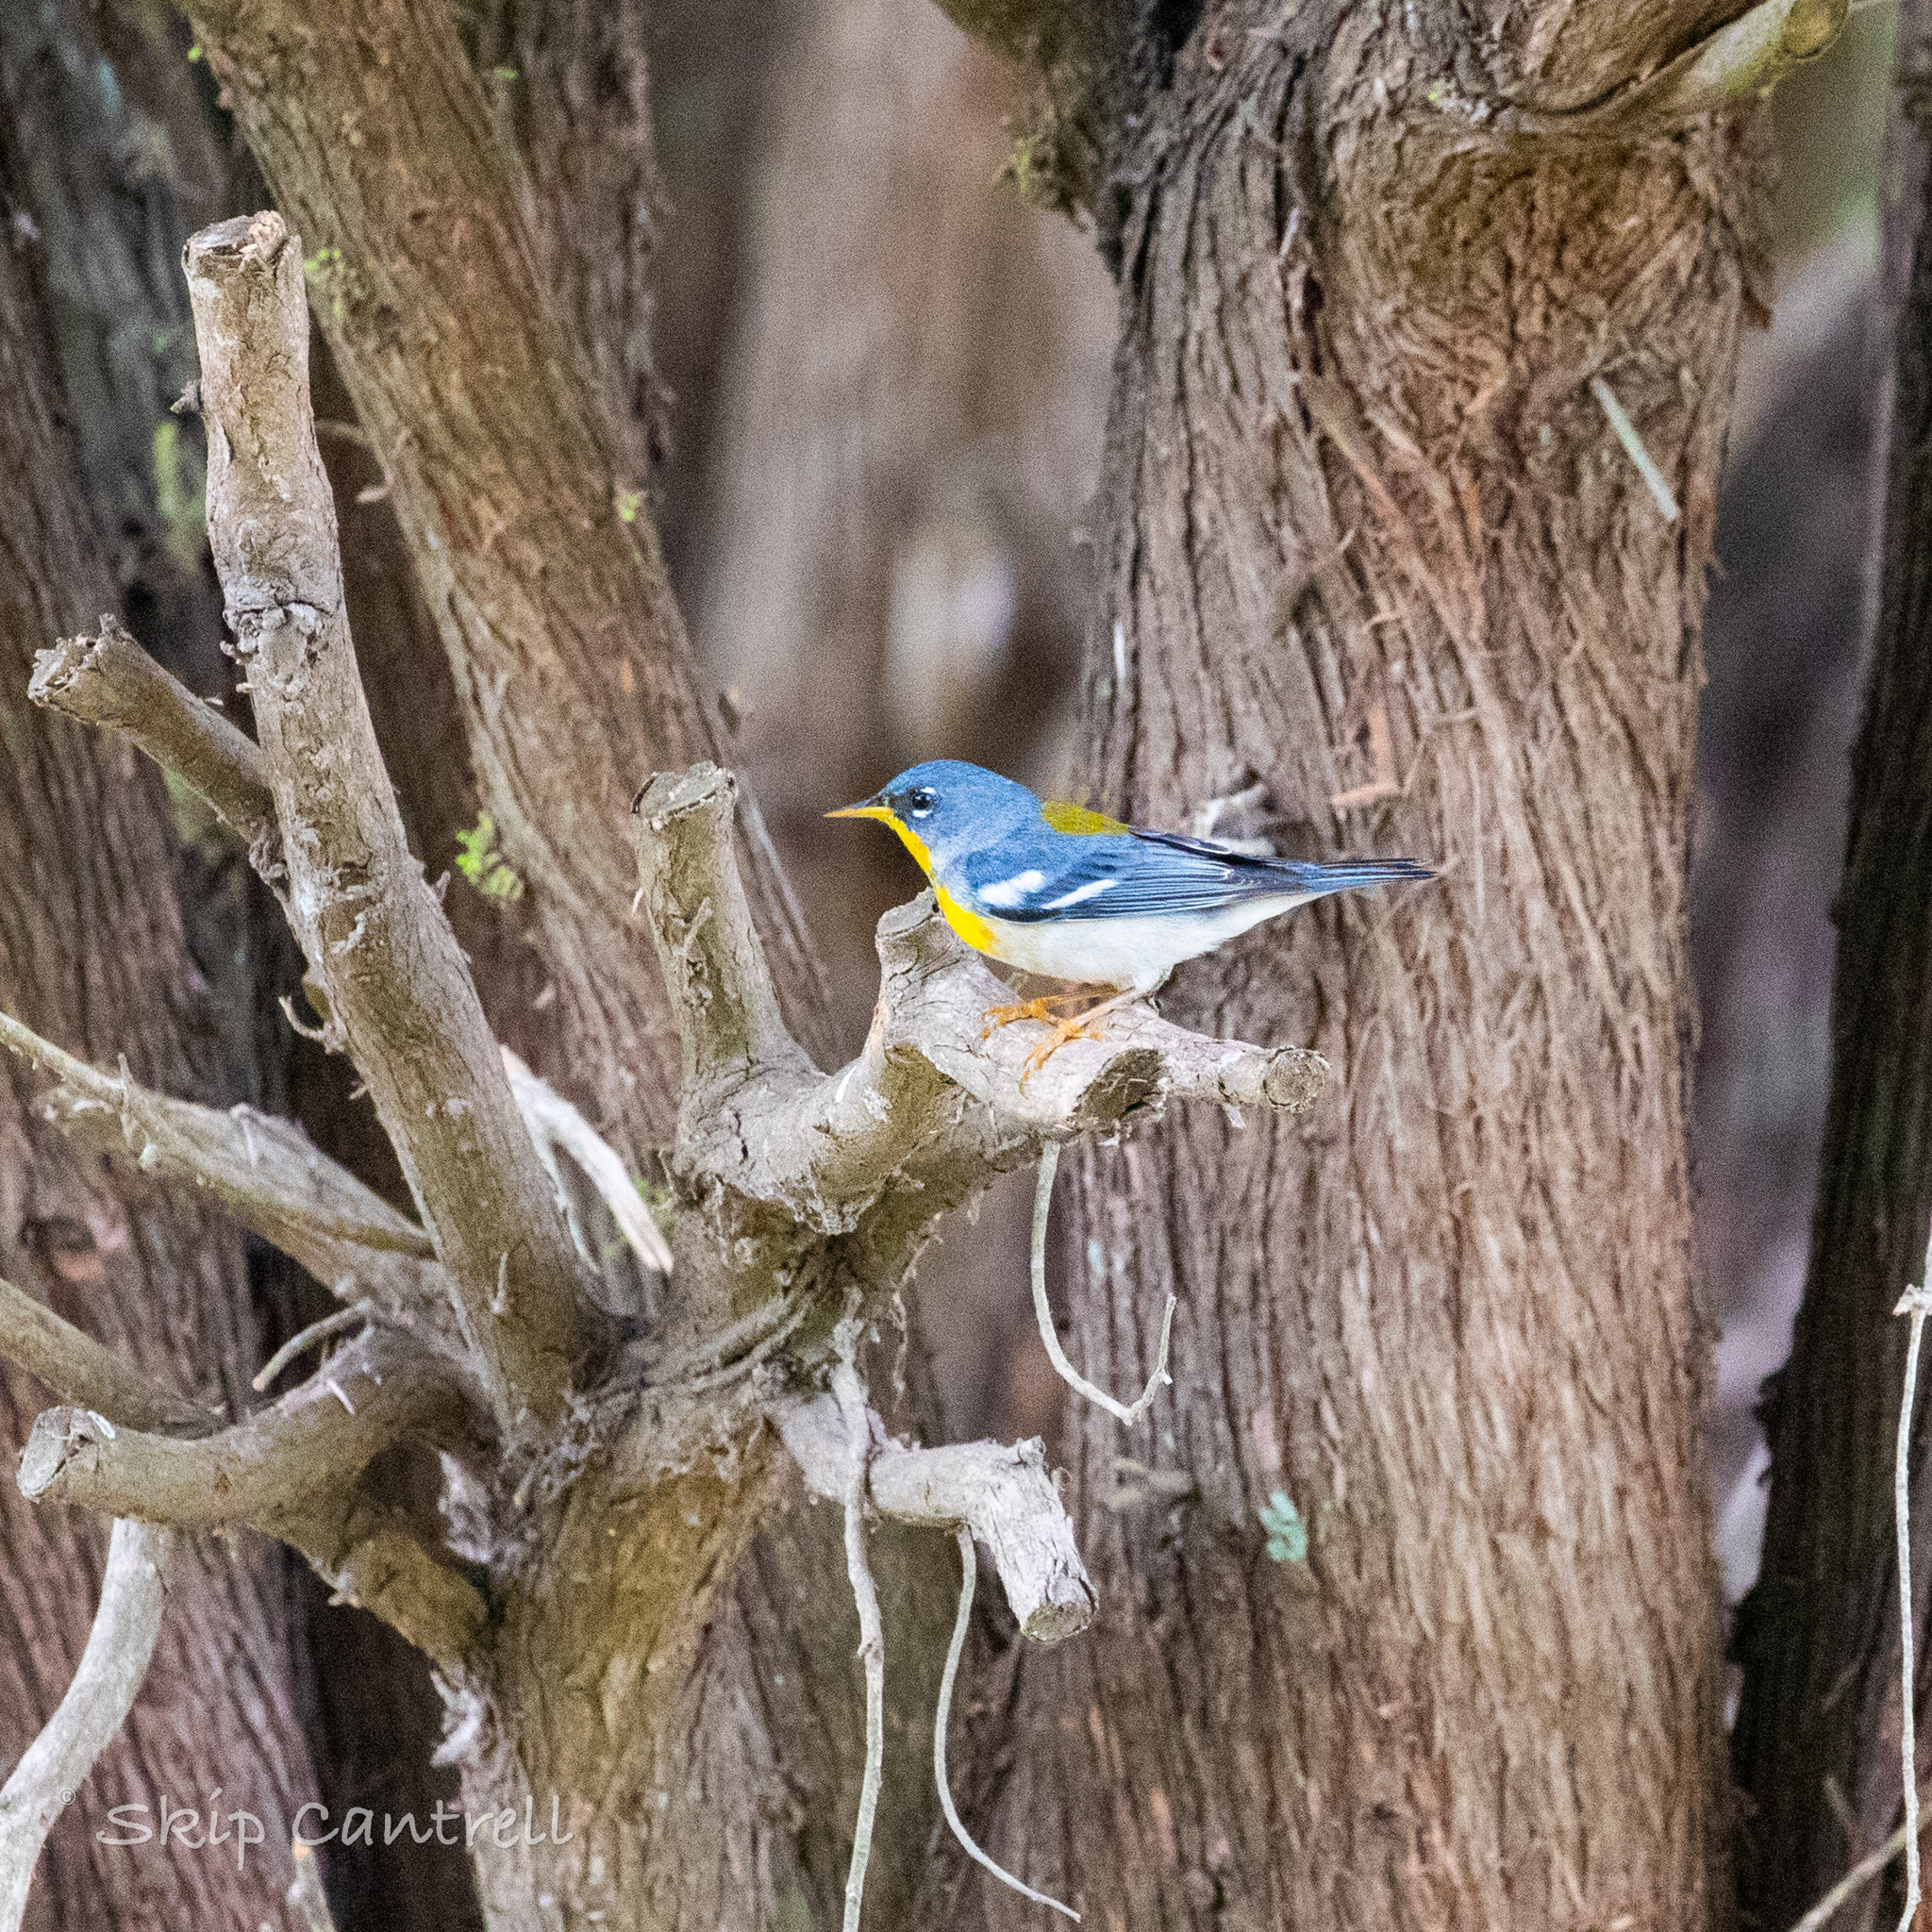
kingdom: Animalia
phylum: Chordata
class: Aves
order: Passeriformes
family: Parulidae
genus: Setophaga
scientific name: Setophaga americana
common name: Northern parula
